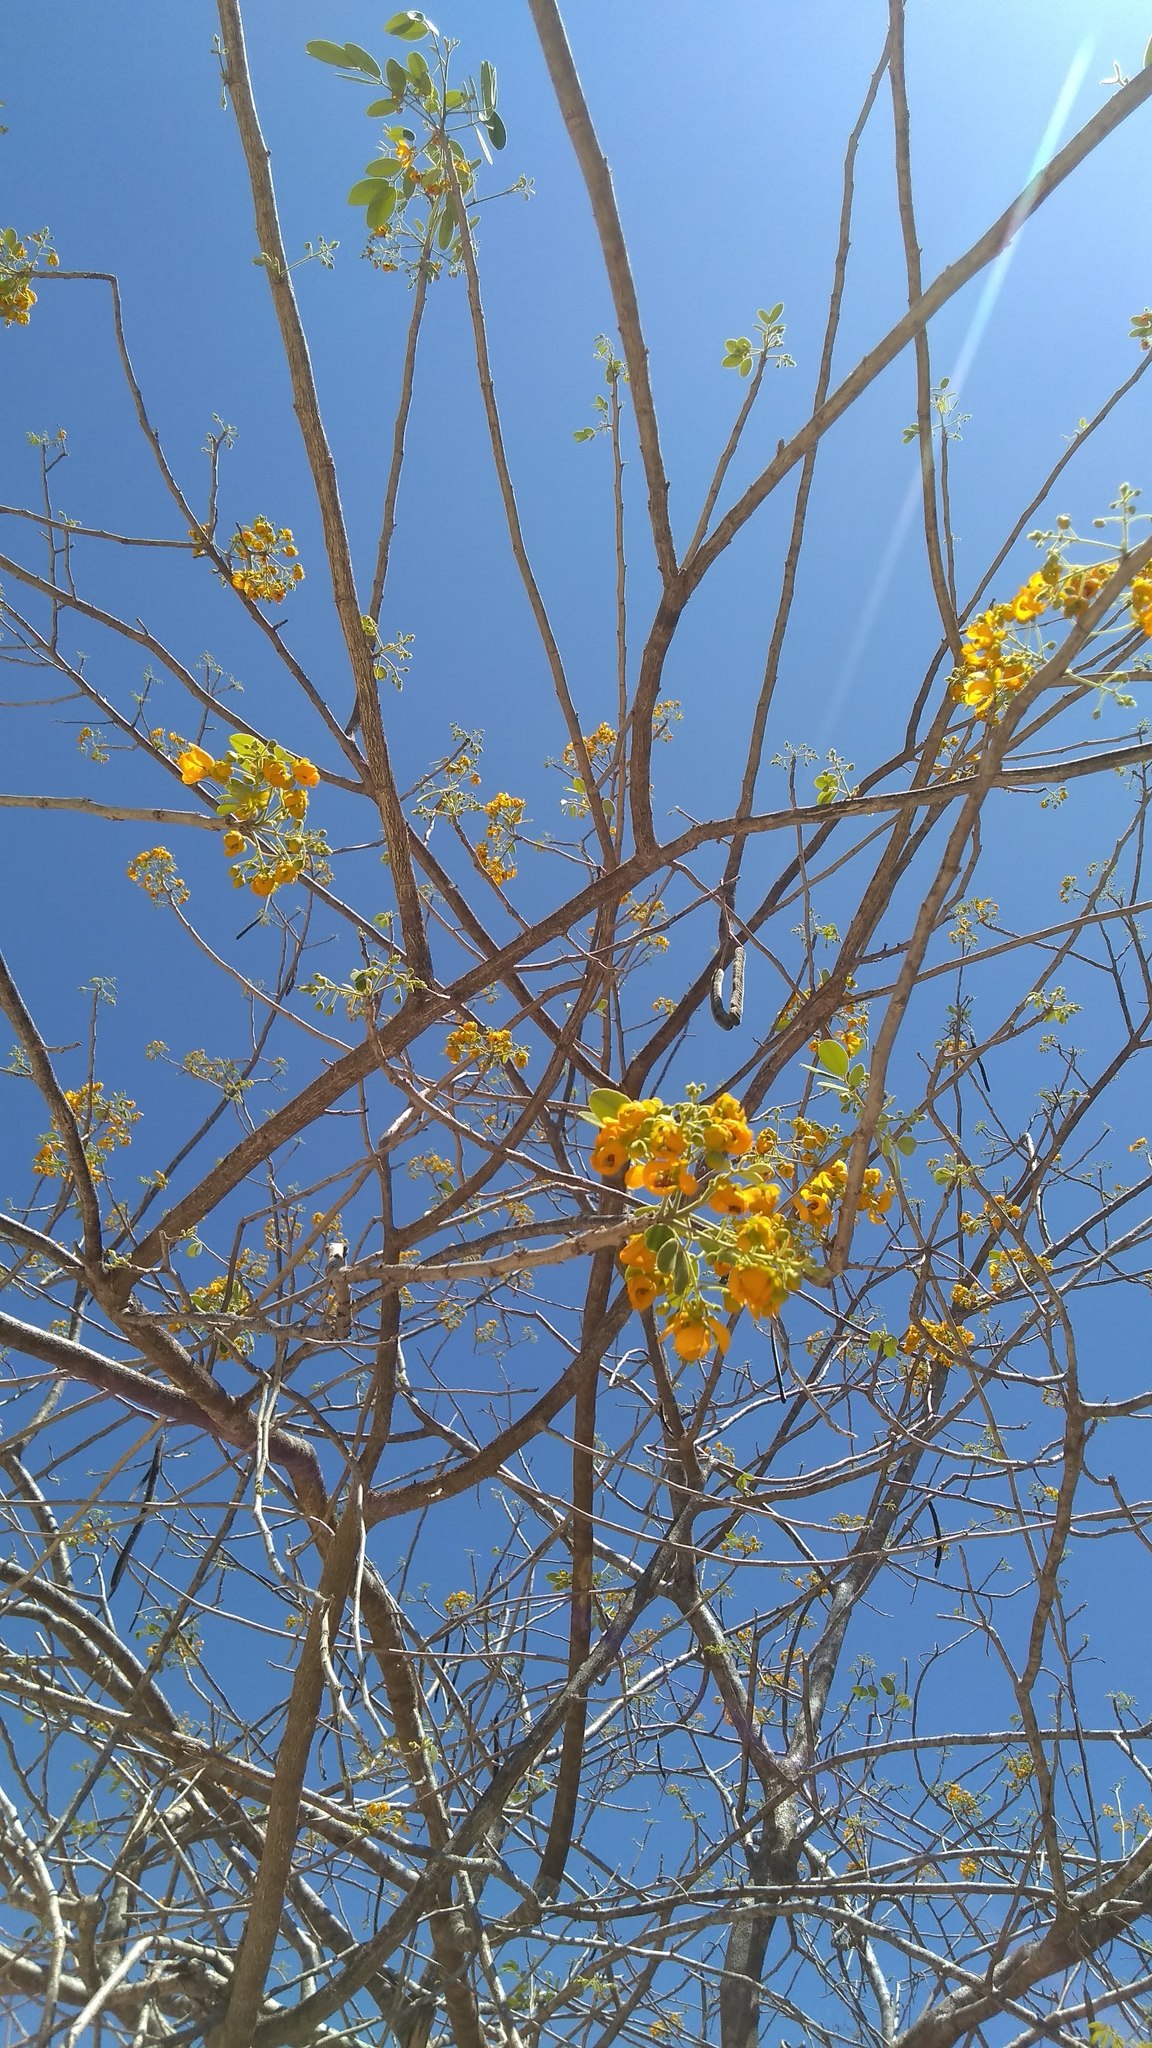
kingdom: Plantae
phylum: Tracheophyta
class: Magnoliopsida
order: Fabales
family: Fabaceae
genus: Enterolobium
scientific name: Enterolobium cyclocarpum
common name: Ear tree
